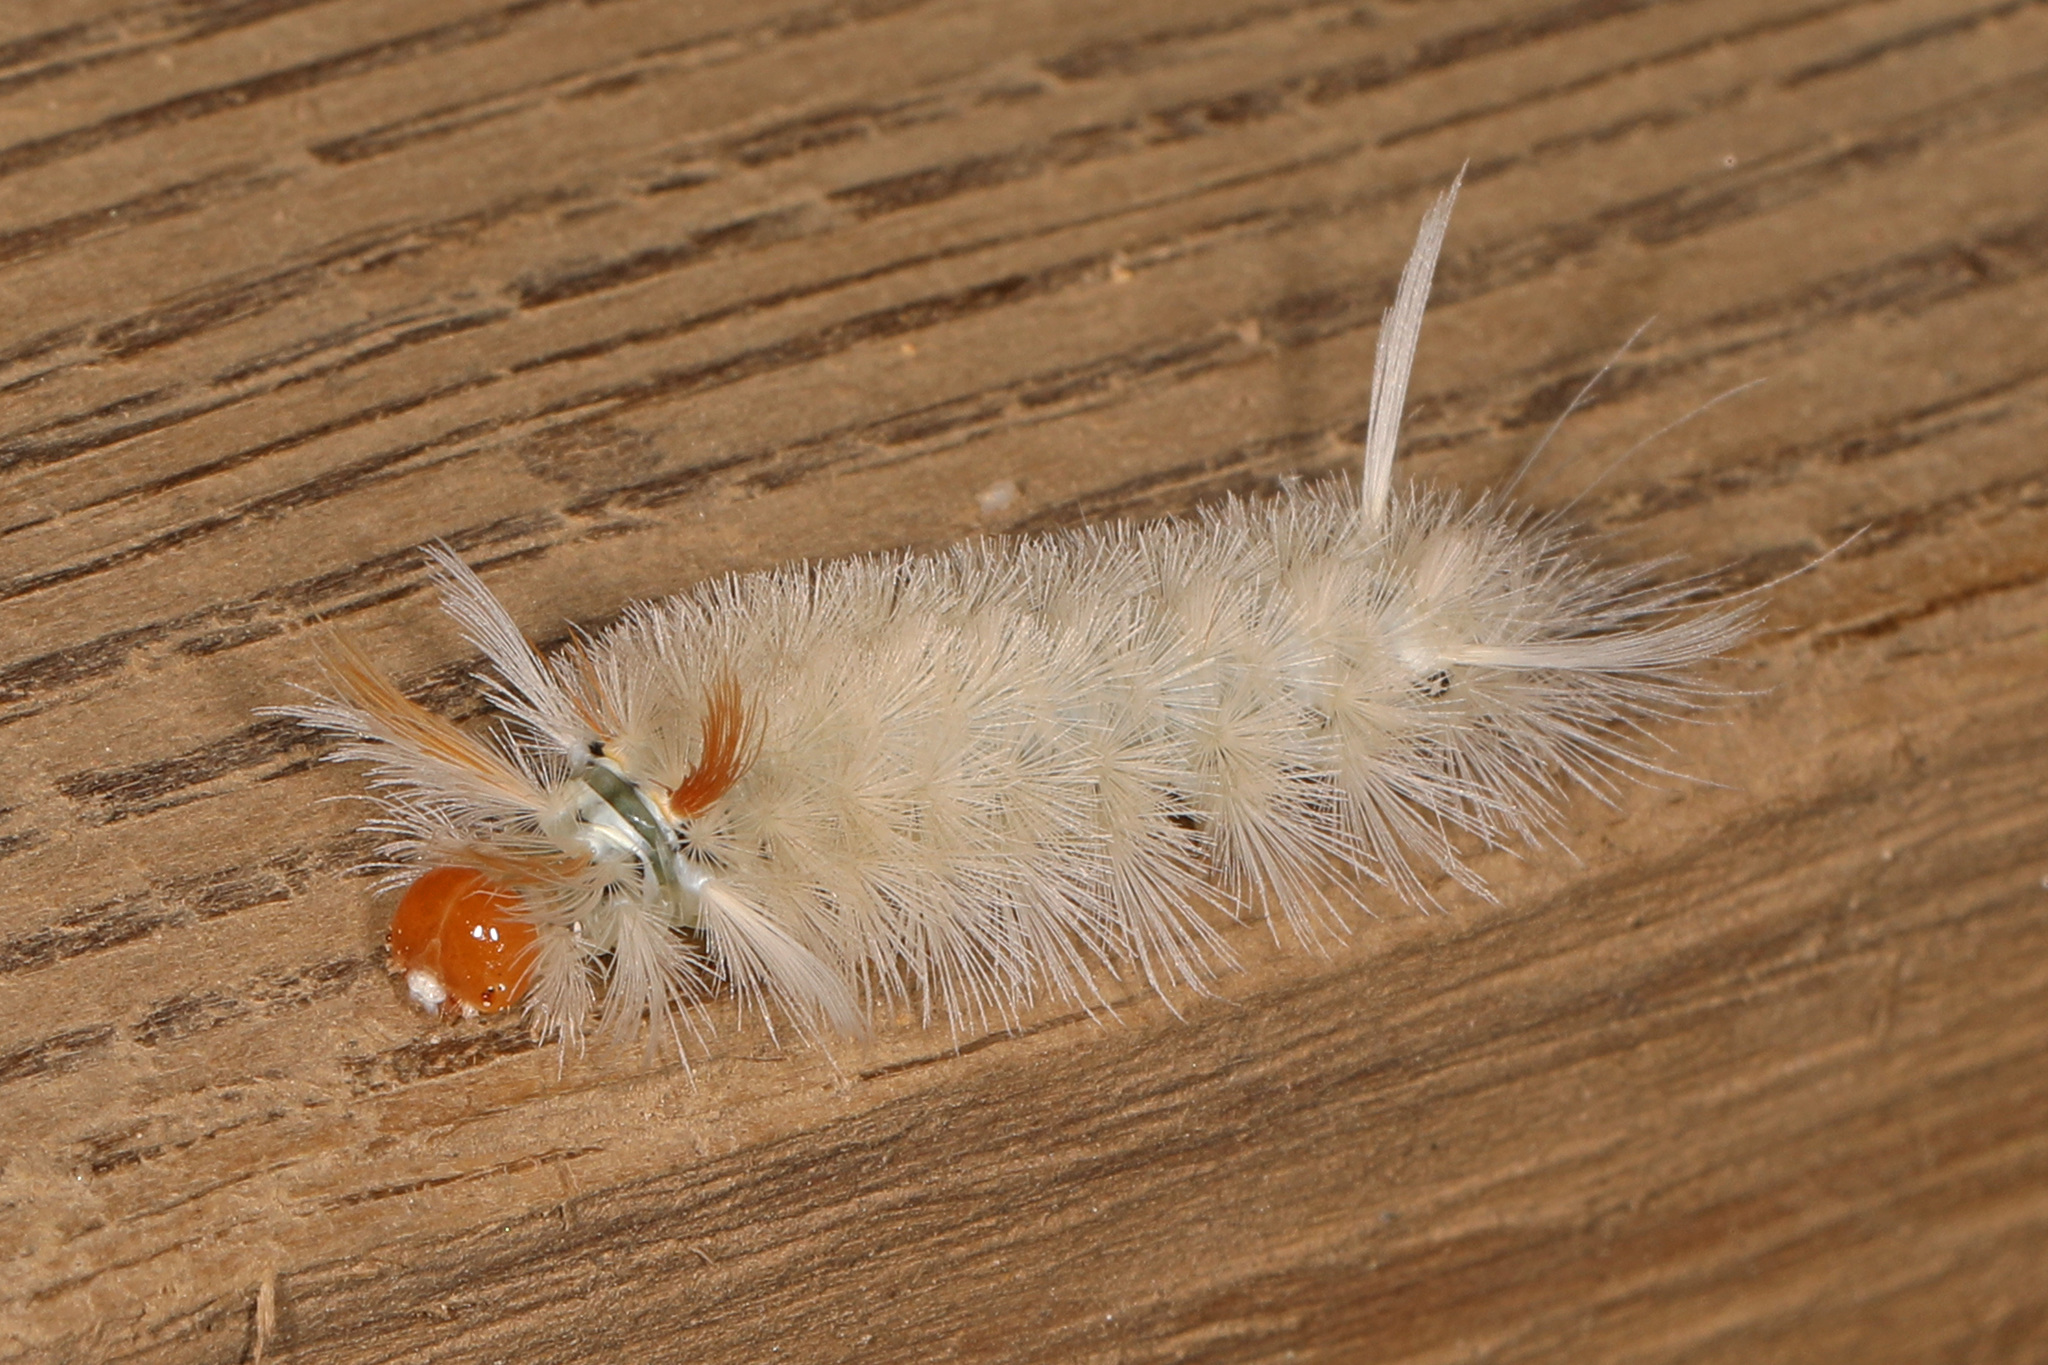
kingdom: Animalia
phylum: Arthropoda
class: Insecta
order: Lepidoptera
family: Erebidae
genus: Halysidota
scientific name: Halysidota harrisii
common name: Sycamore tussock moth
